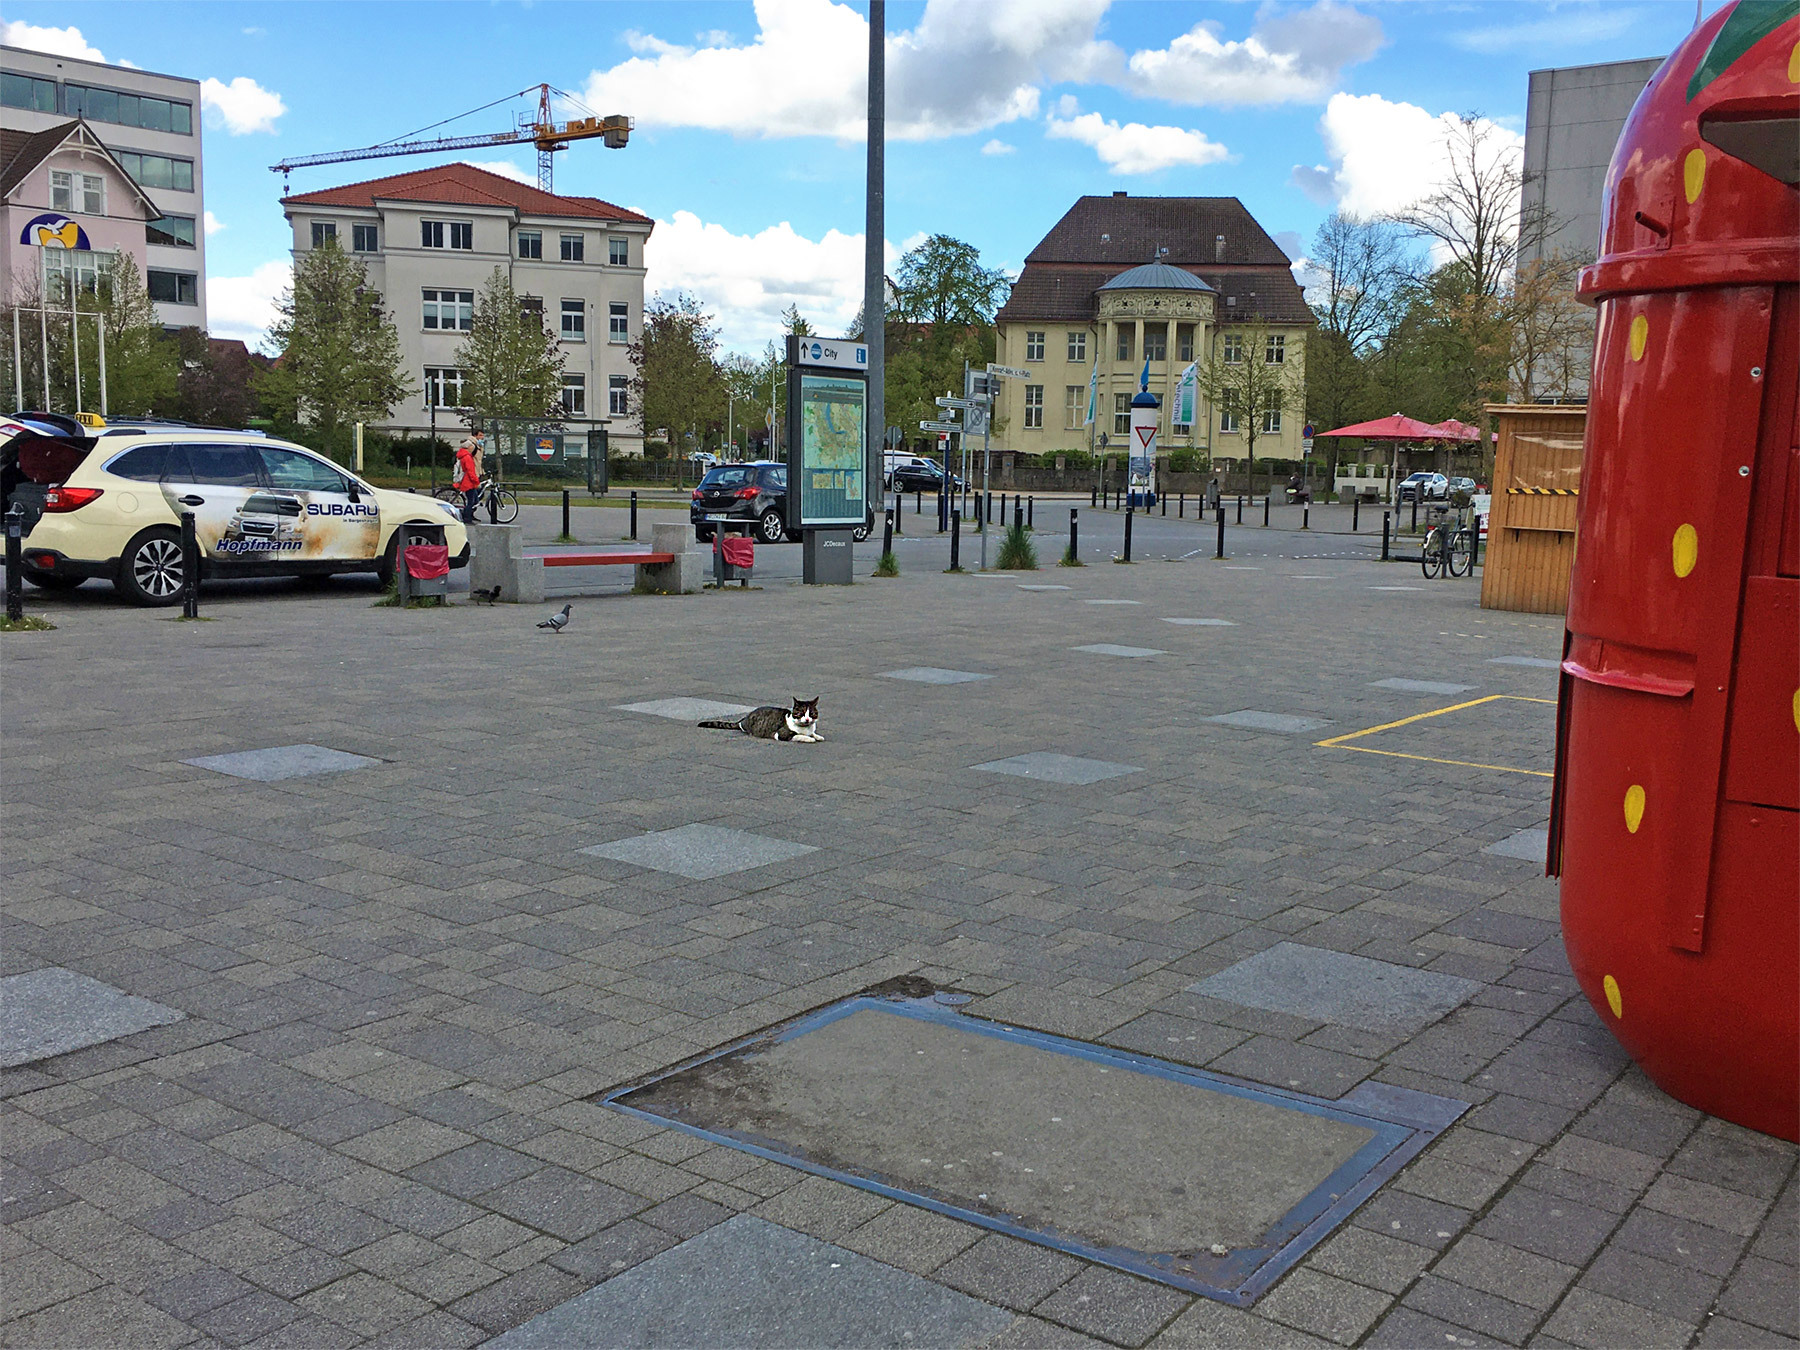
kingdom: Animalia
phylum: Chordata
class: Mammalia
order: Carnivora
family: Felidae
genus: Felis
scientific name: Felis catus
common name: Domestic cat
